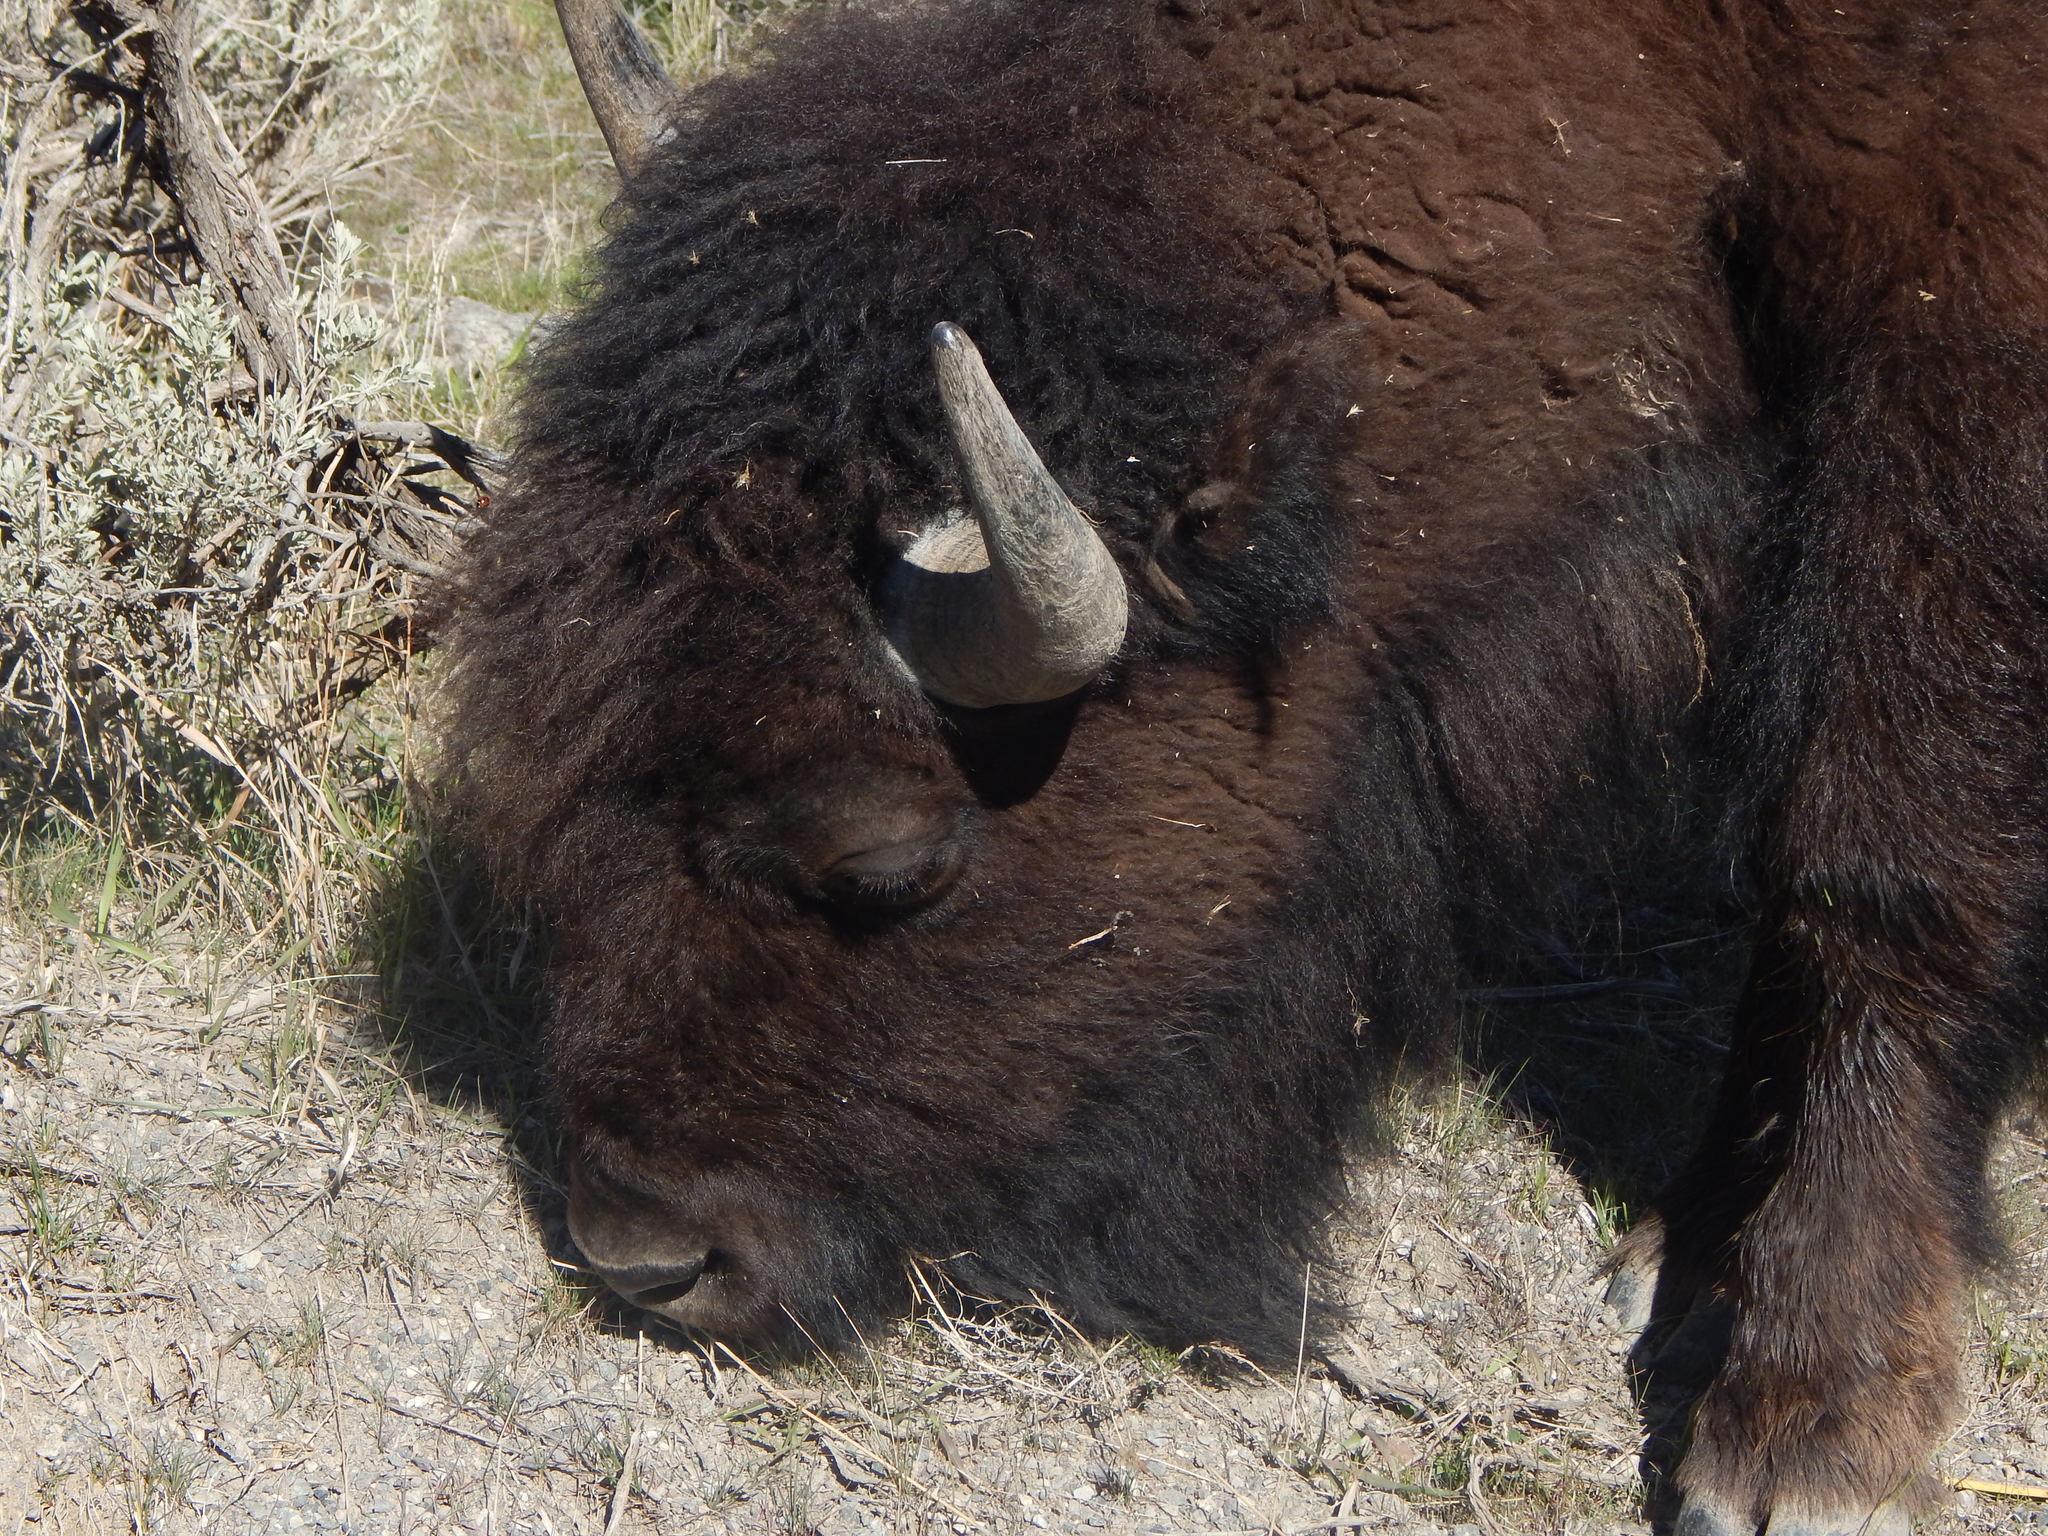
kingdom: Animalia
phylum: Chordata
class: Mammalia
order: Artiodactyla
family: Bovidae
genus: Bison
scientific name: Bison bison
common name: American bison
